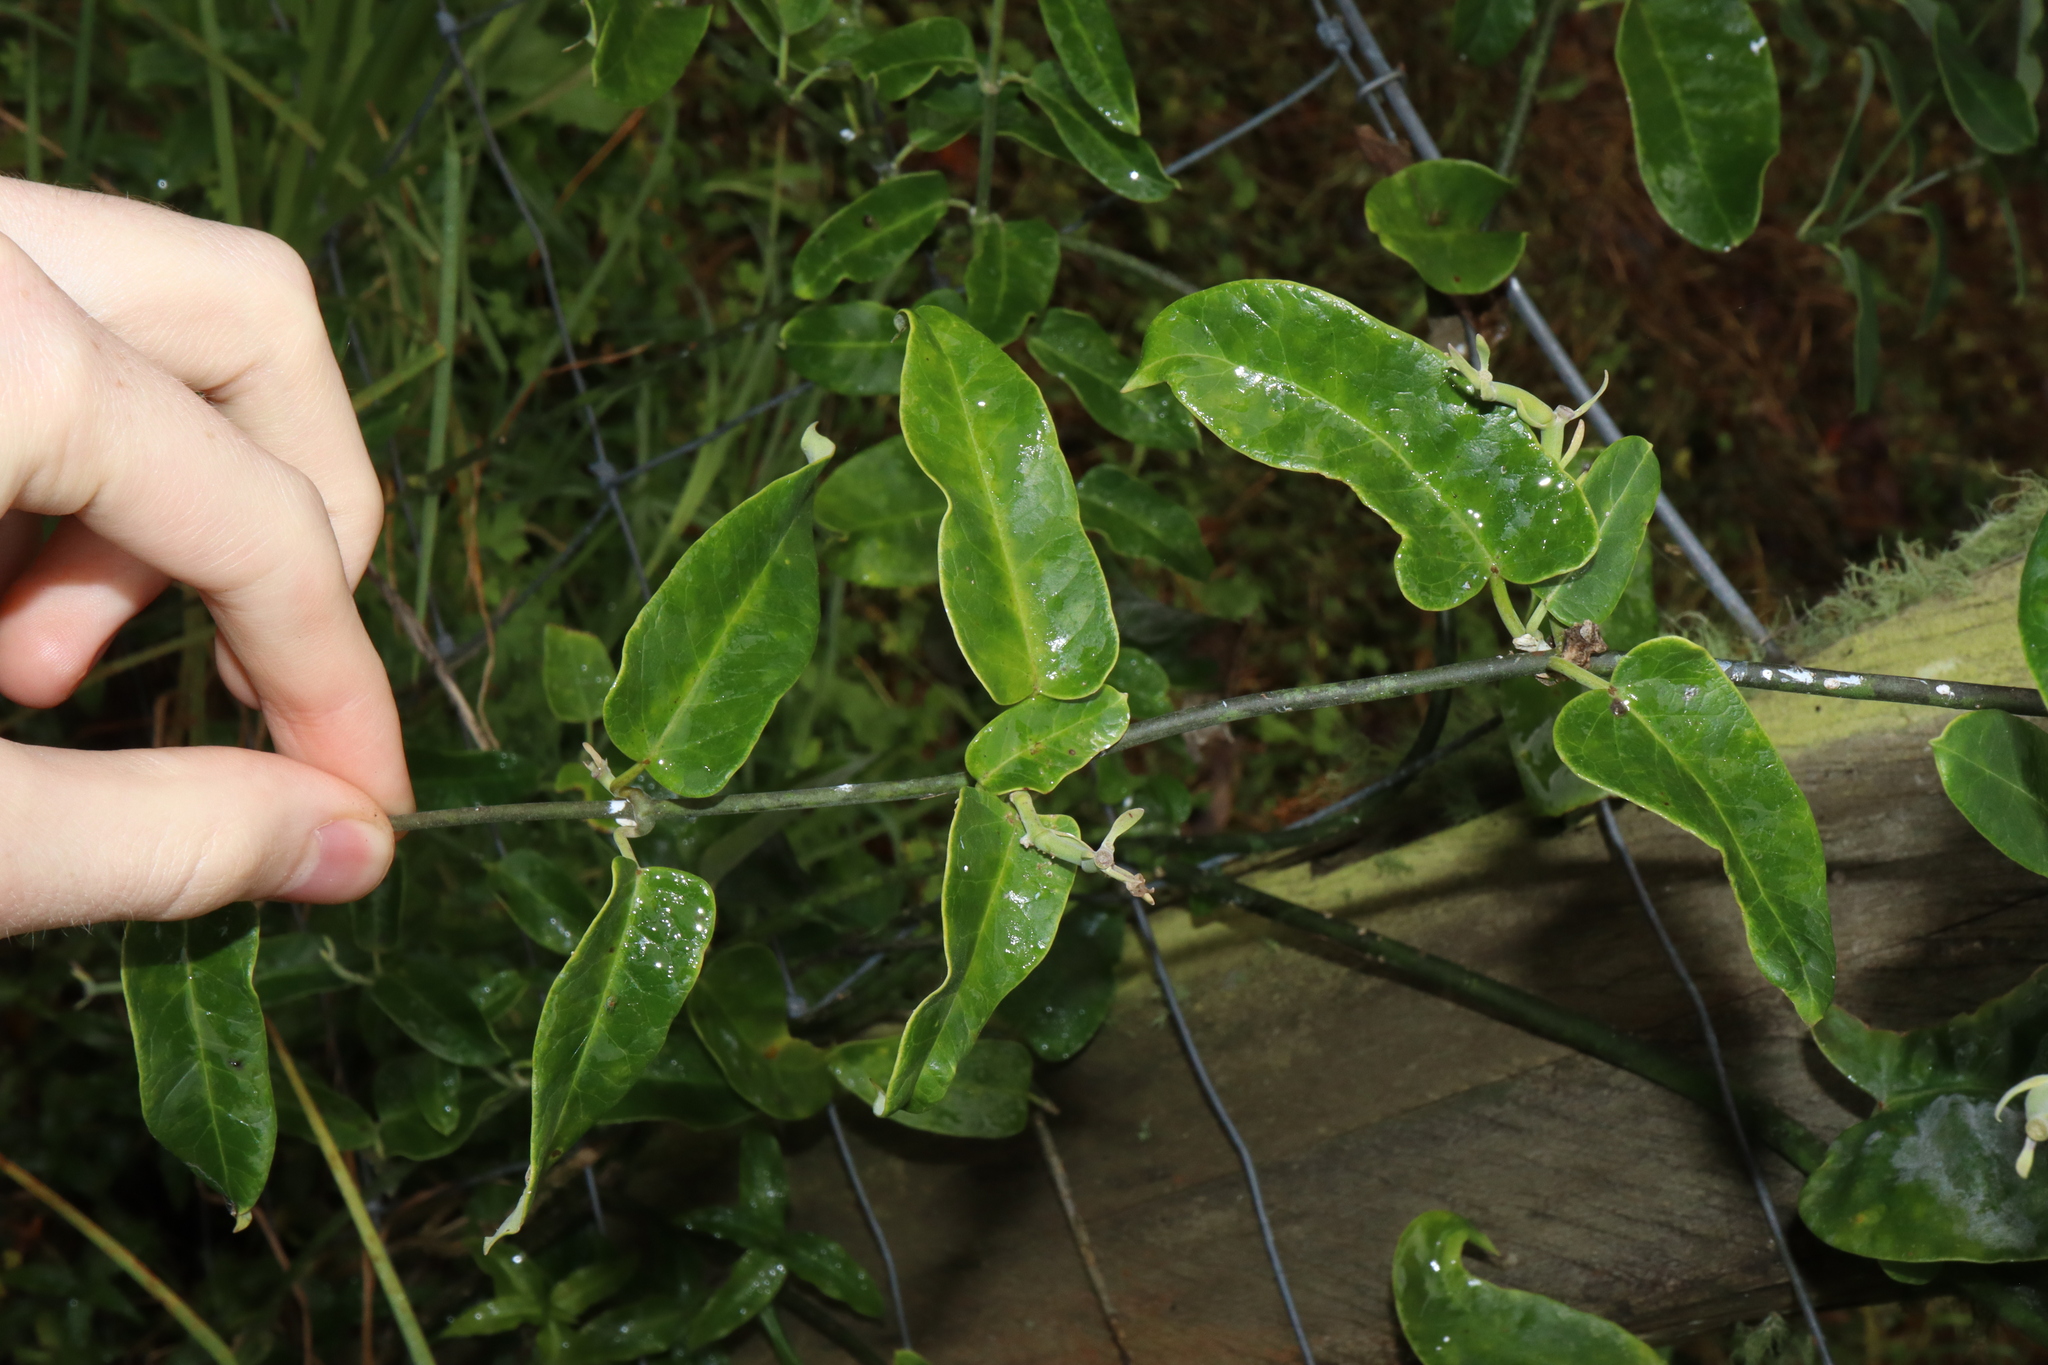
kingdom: Plantae
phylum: Tracheophyta
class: Magnoliopsida
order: Gentianales
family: Apocynaceae
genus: Araujia
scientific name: Araujia sericifera
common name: White bladderflower
